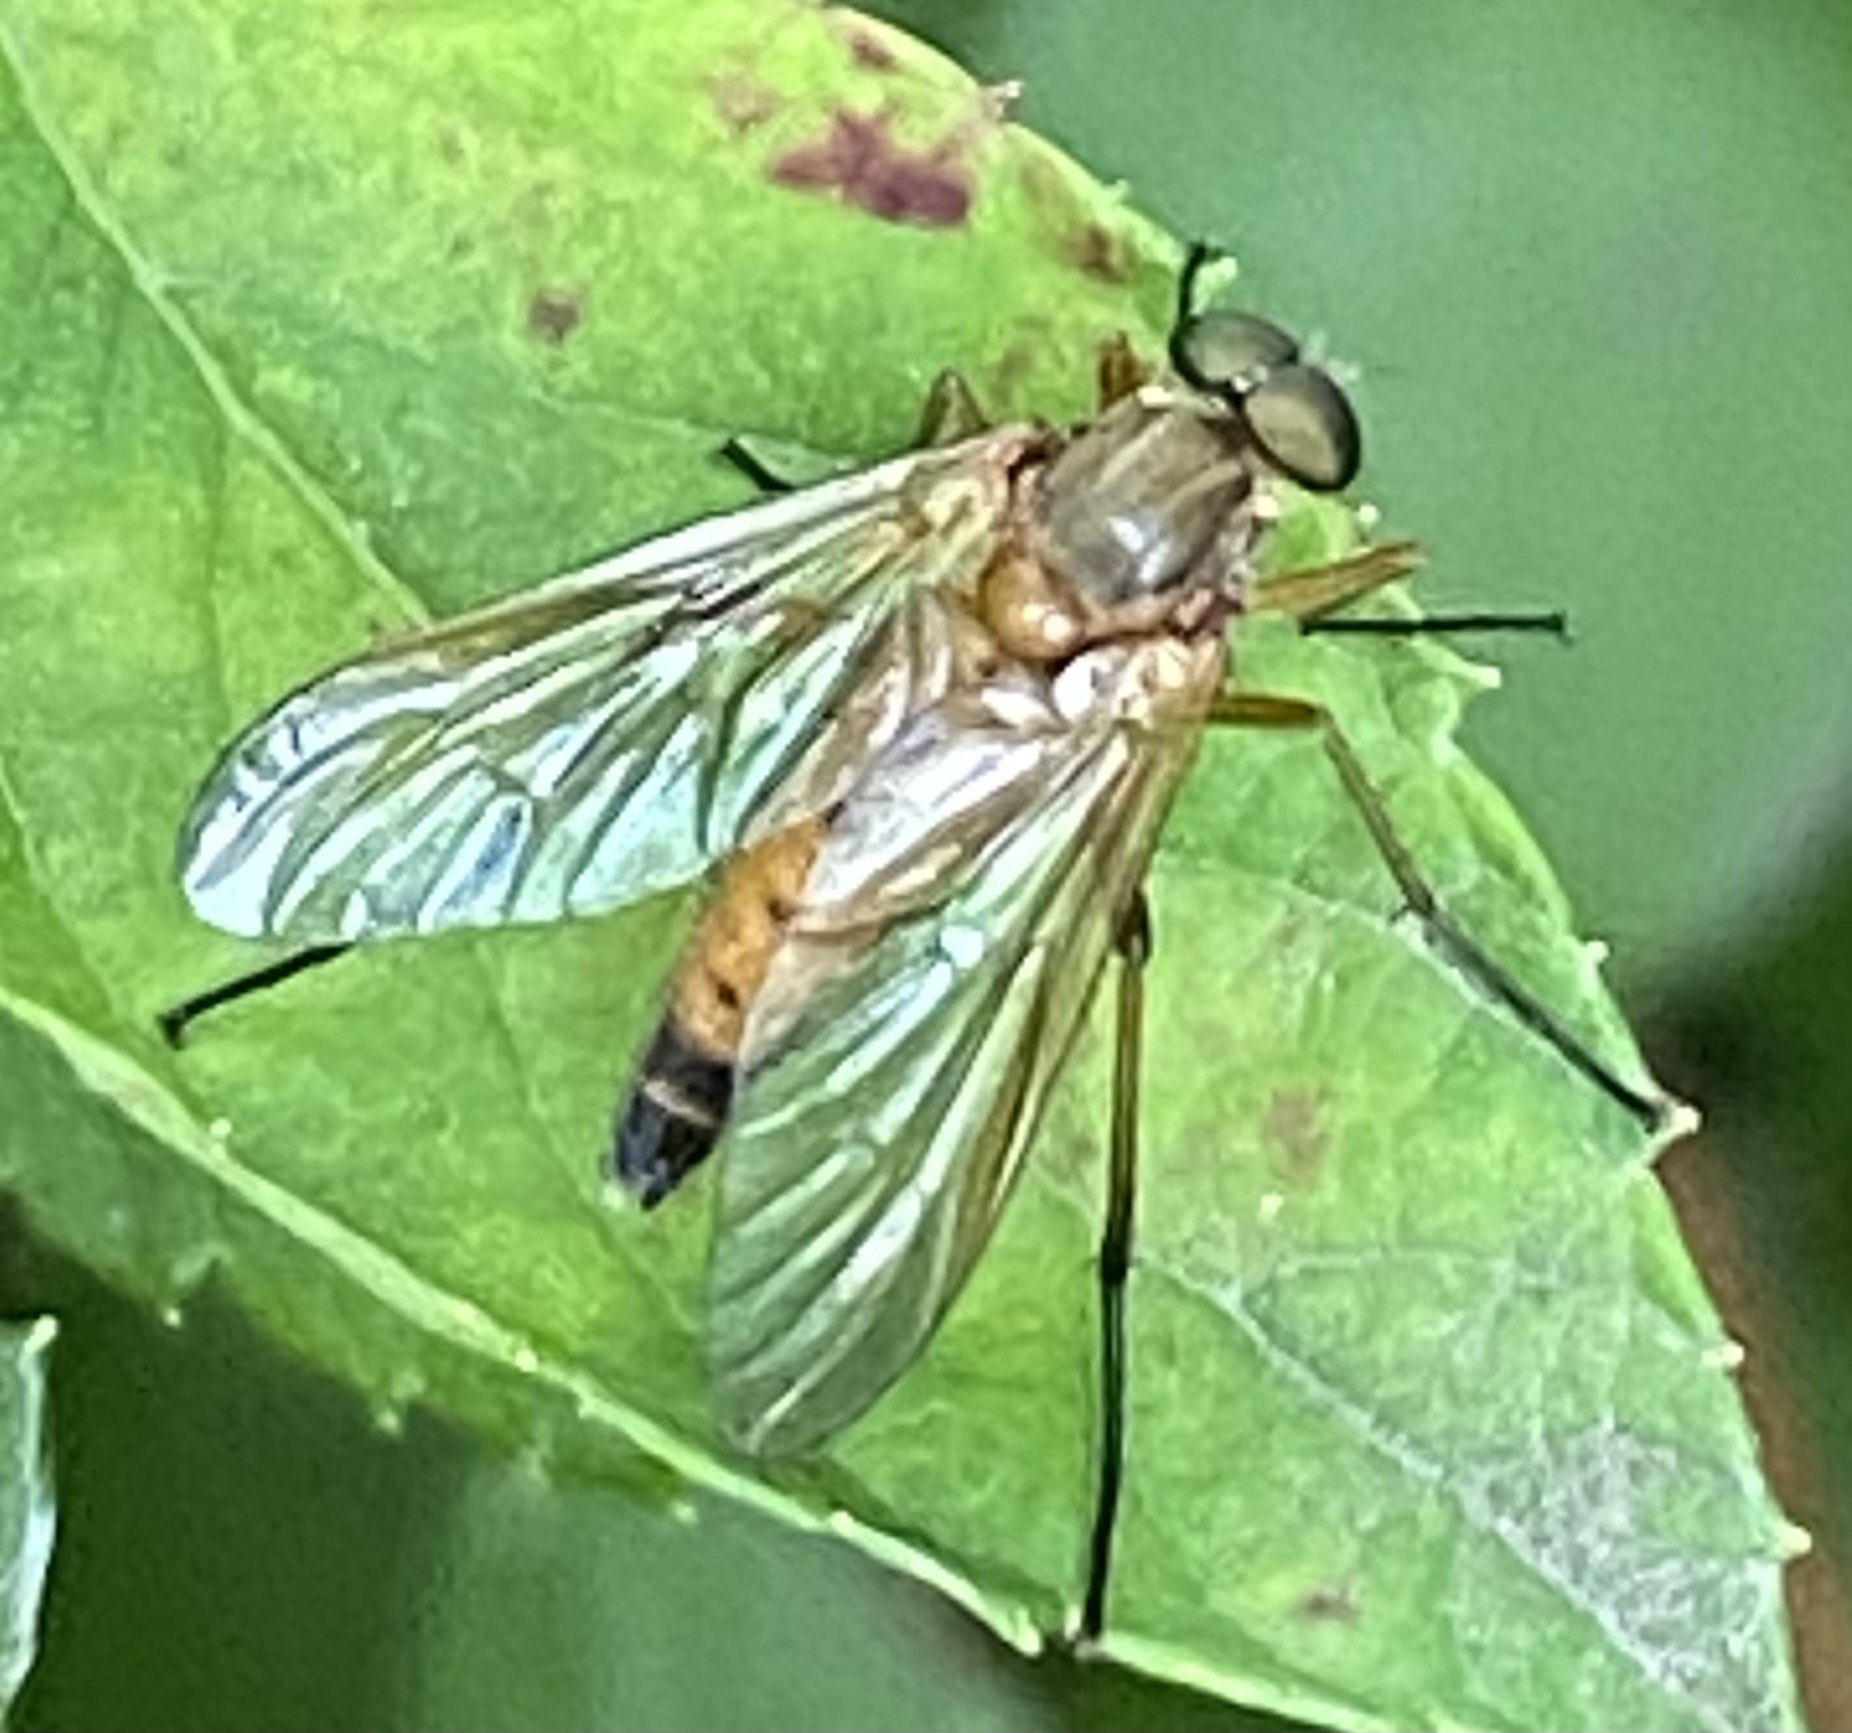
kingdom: Animalia
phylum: Arthropoda
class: Insecta
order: Diptera
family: Rhagionidae
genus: Rhagio
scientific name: Rhagio tringaria
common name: Marsh snipefly
